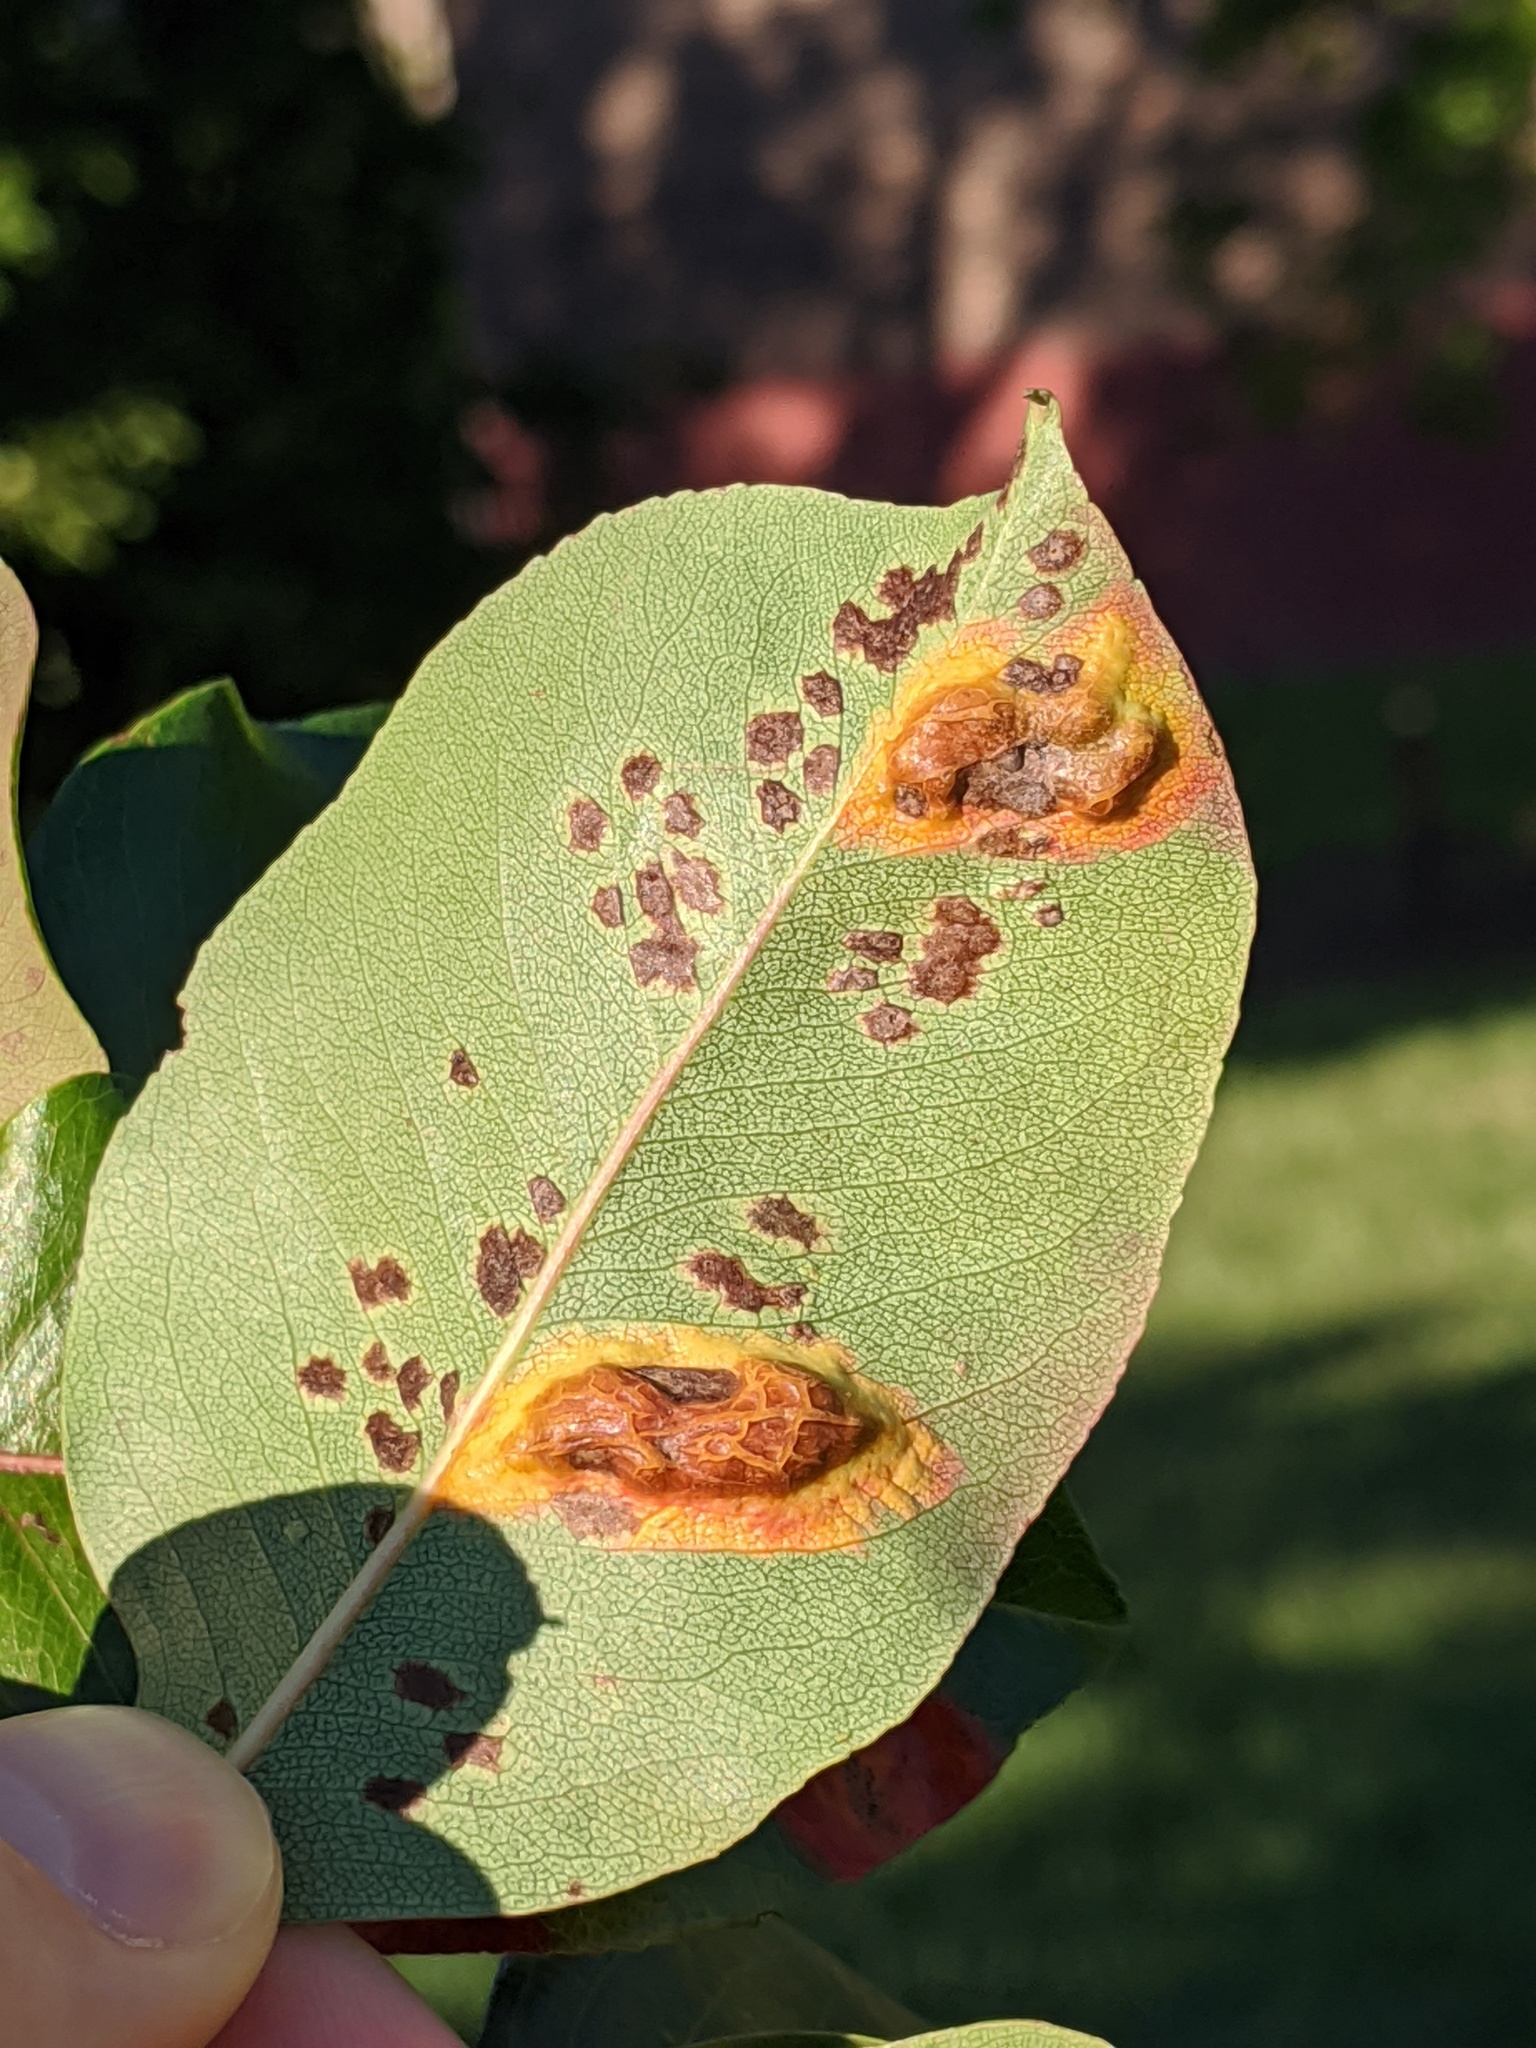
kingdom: Fungi
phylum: Basidiomycota
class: Pucciniomycetes
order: Pucciniales
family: Gymnosporangiaceae
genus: Gymnosporangium
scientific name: Gymnosporangium sabinae
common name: Pear trellis rust fungus
